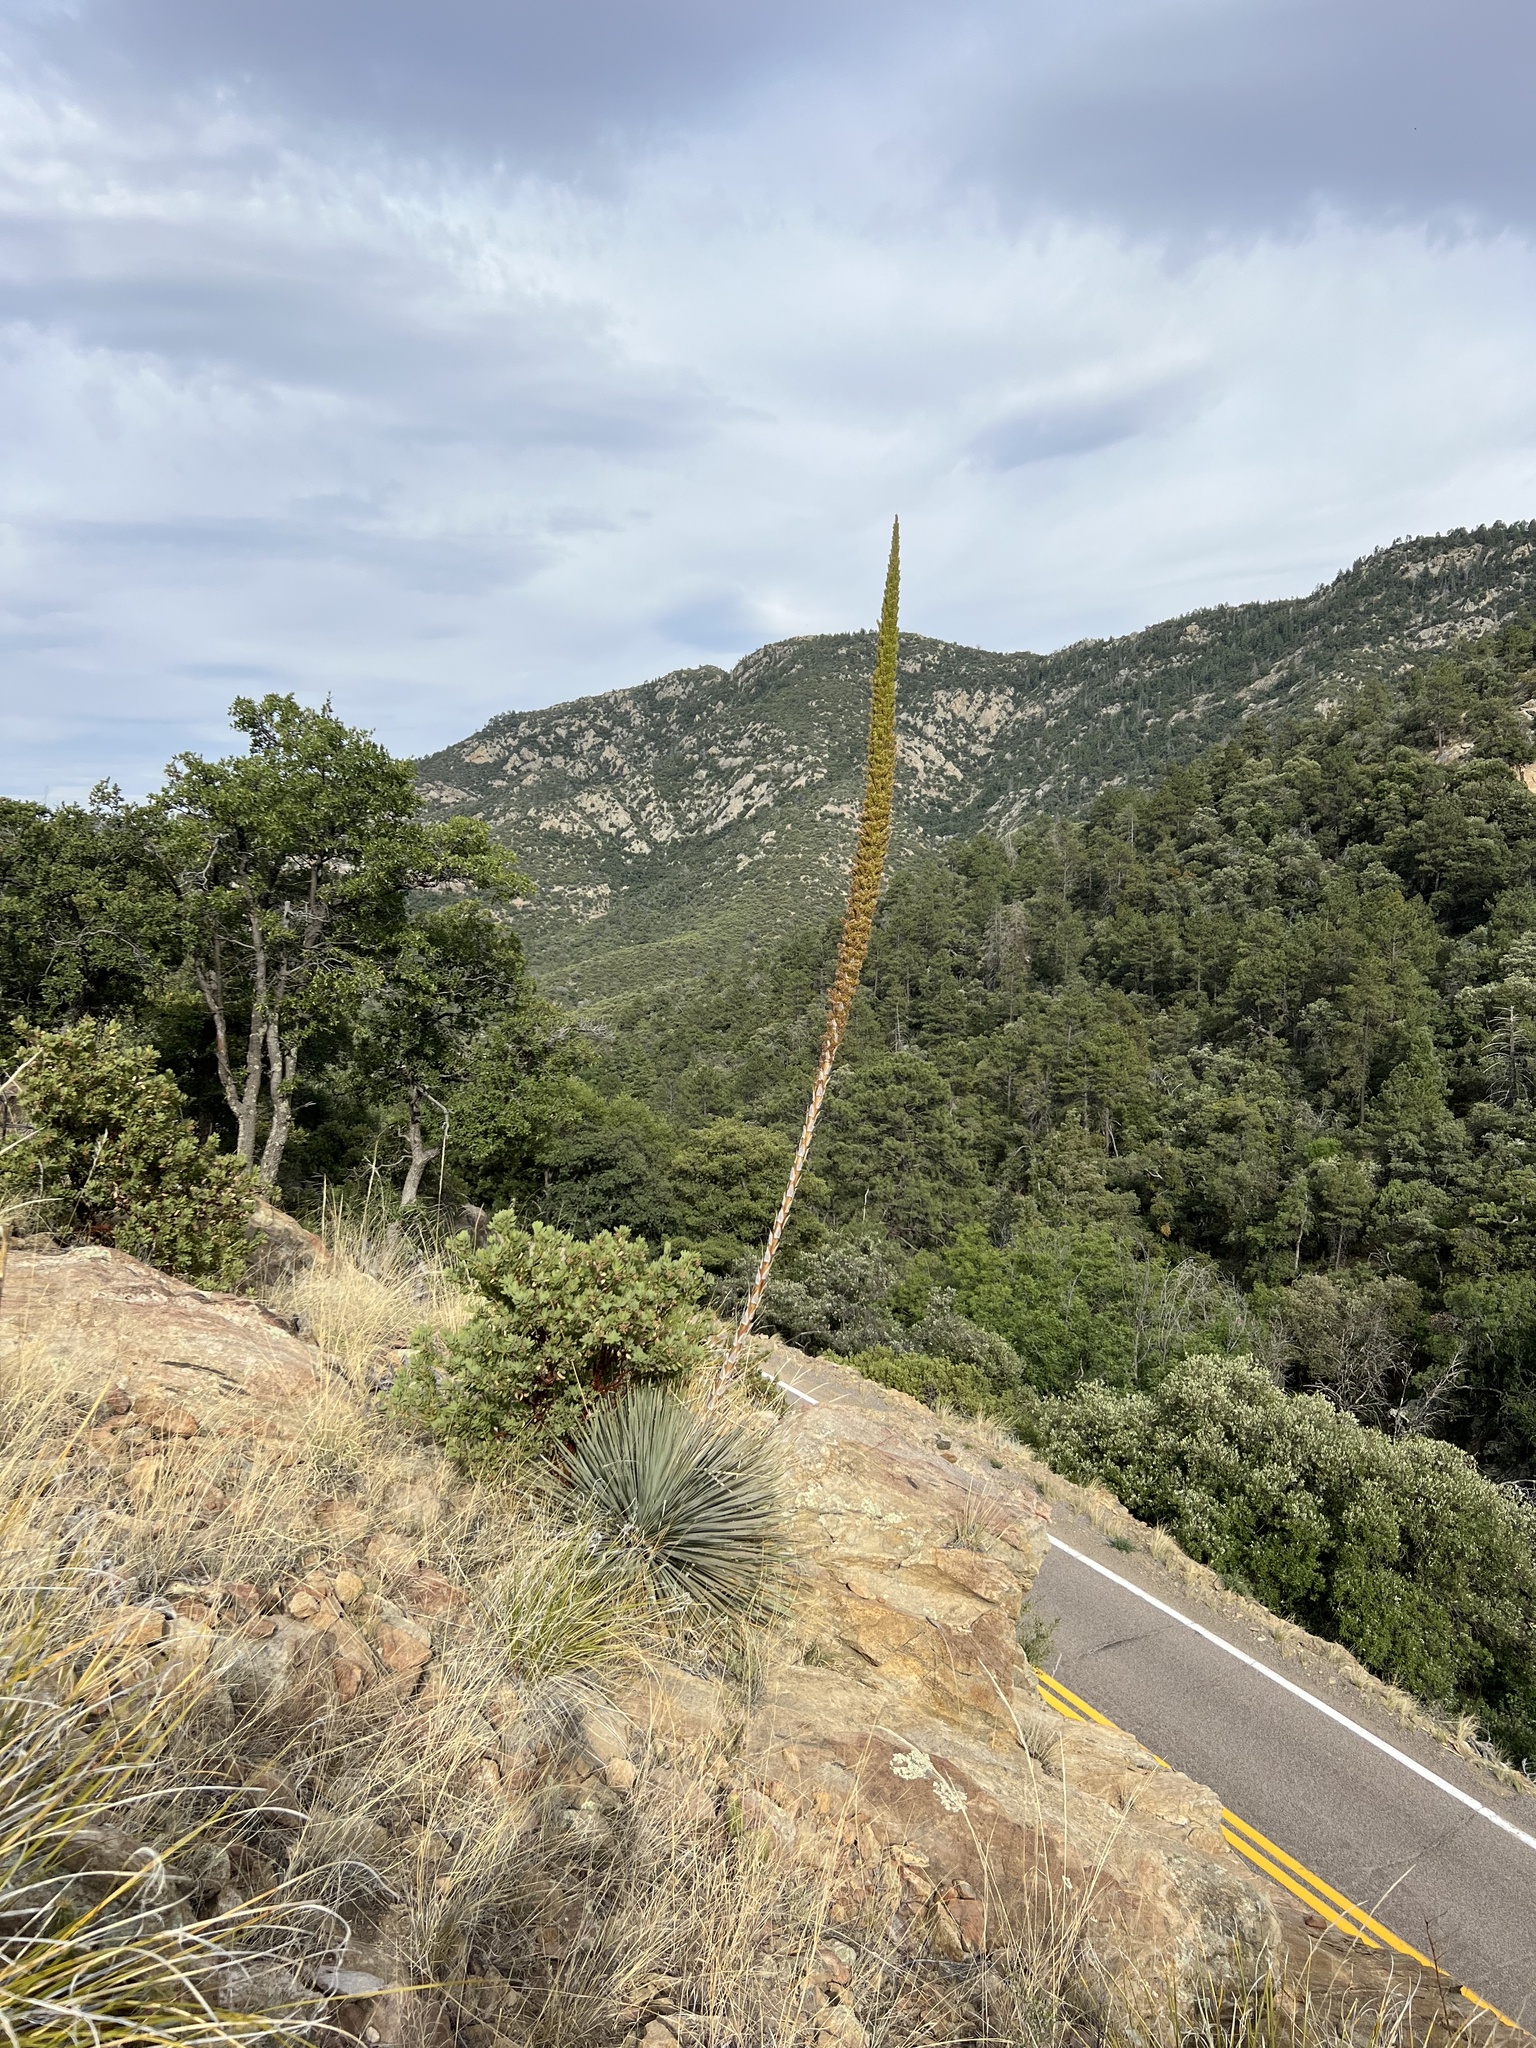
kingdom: Plantae
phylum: Tracheophyta
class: Liliopsida
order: Asparagales
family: Asparagaceae
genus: Dasylirion
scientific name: Dasylirion wheeleri
